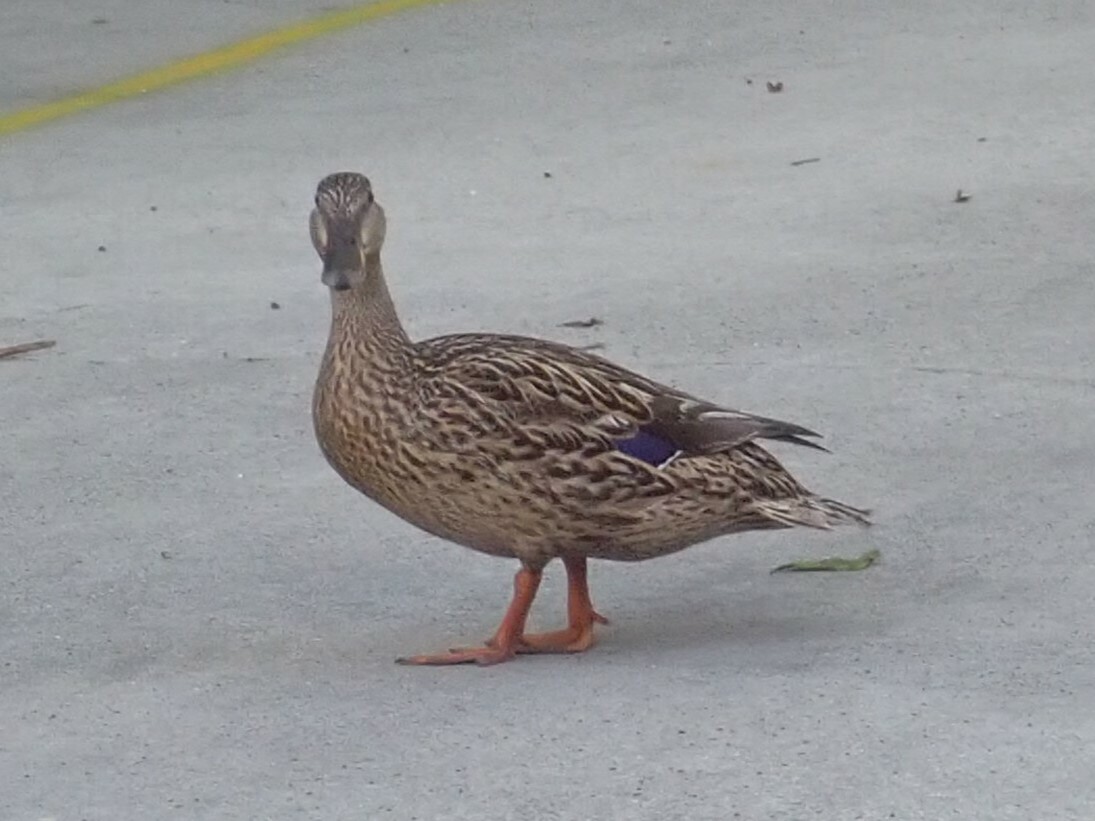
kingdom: Animalia
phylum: Chordata
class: Aves
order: Anseriformes
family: Anatidae
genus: Anas
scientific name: Anas platyrhynchos
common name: Mallard
